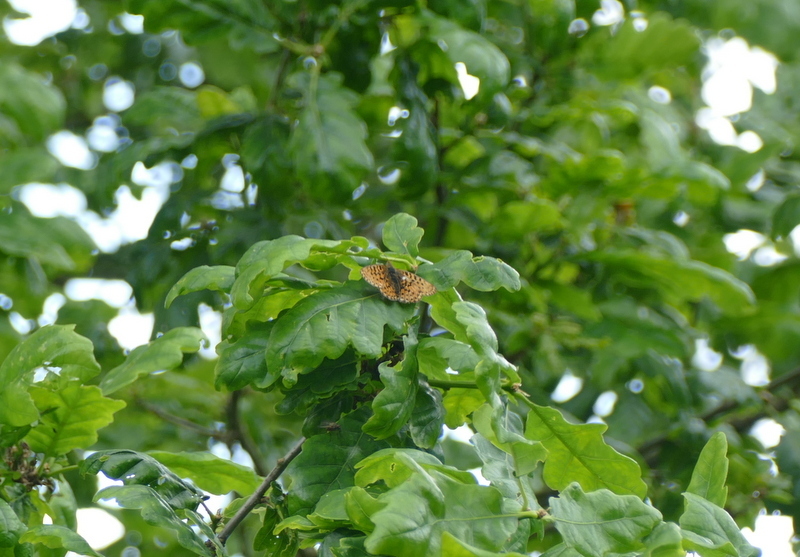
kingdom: Animalia
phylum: Arthropoda
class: Insecta
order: Lepidoptera
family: Nymphalidae
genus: Clossiana
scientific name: Clossiana euphrosyne
